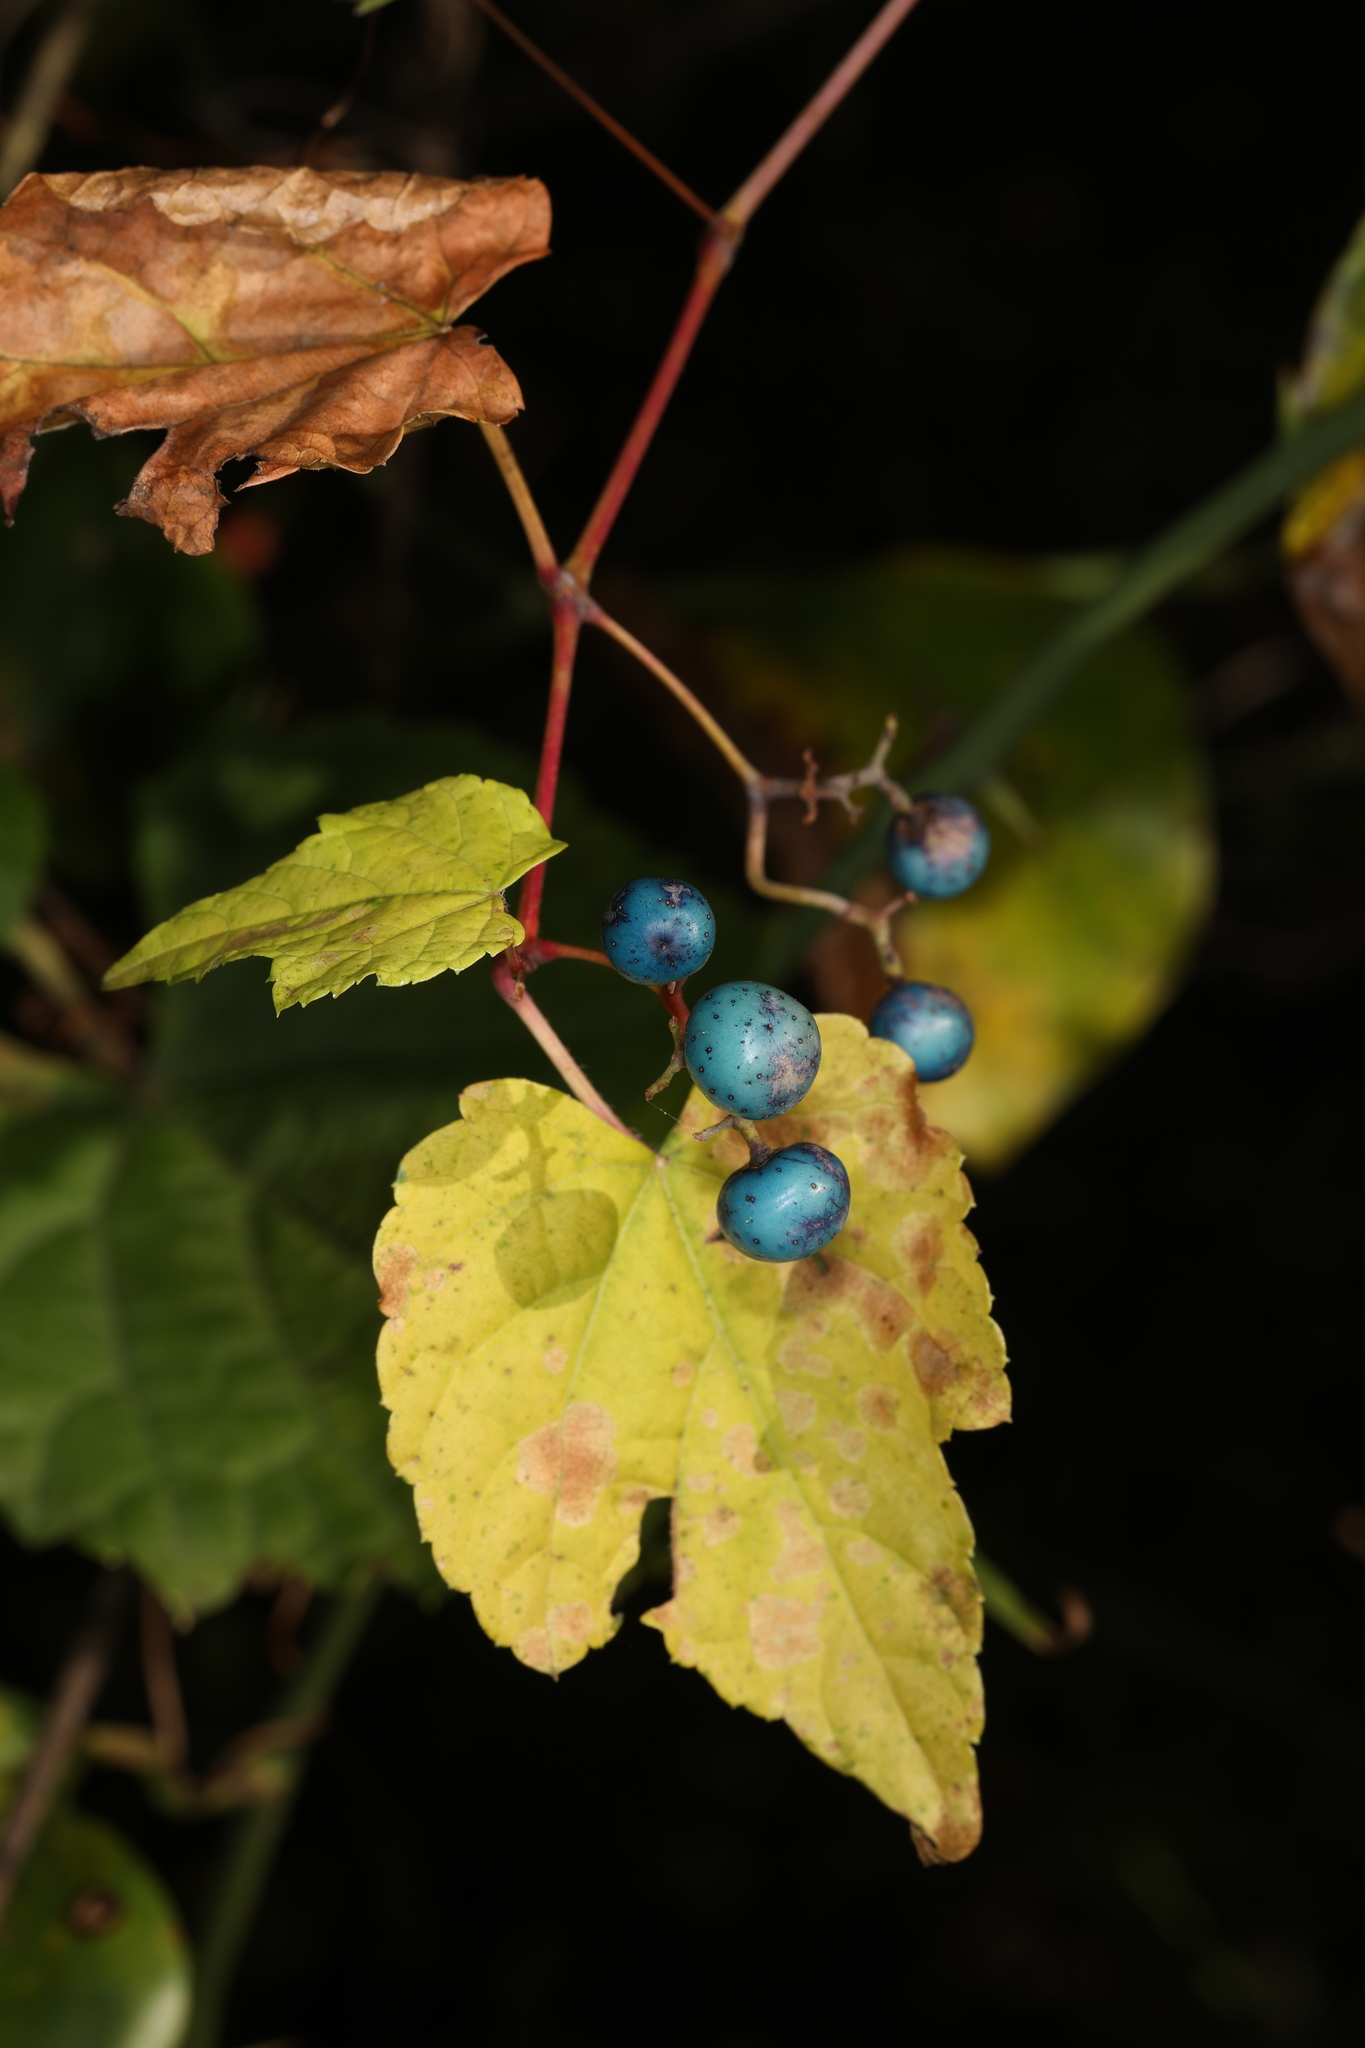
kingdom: Plantae
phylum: Tracheophyta
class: Magnoliopsida
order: Vitales
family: Vitaceae
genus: Ampelopsis
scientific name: Ampelopsis glandulosa
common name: Amur peppervine
